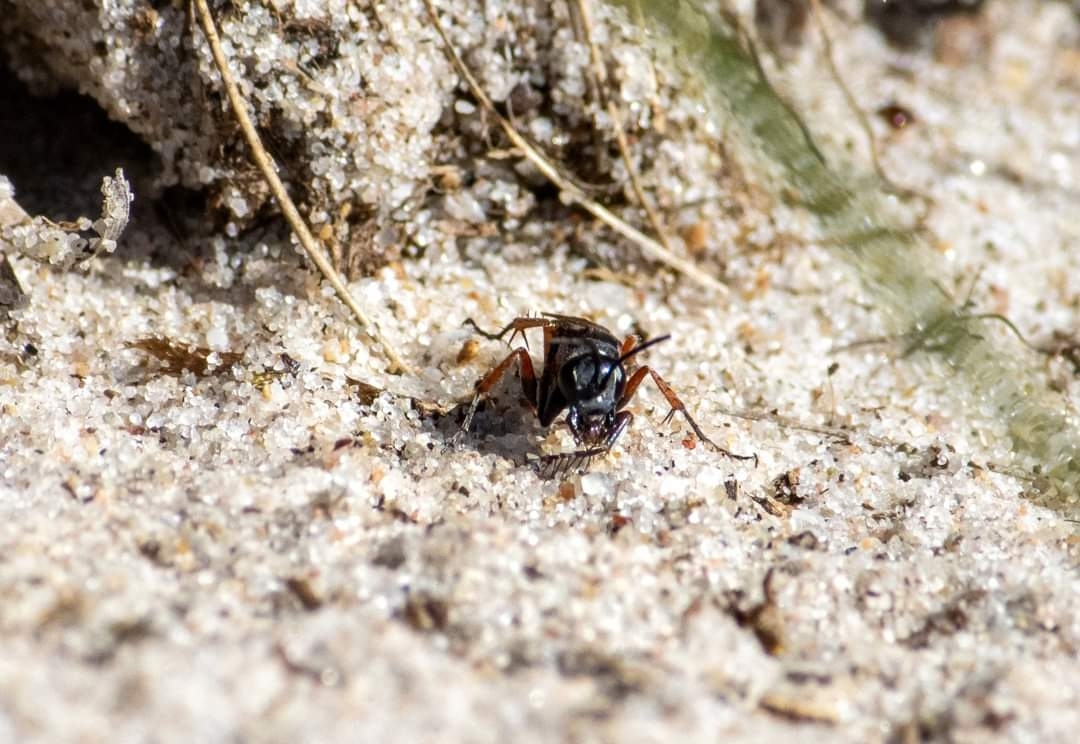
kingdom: Animalia
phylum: Arthropoda
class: Insecta
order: Hymenoptera
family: Pompilidae
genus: Episyron
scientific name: Episyron rufipes
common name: Red legged spider wasp
